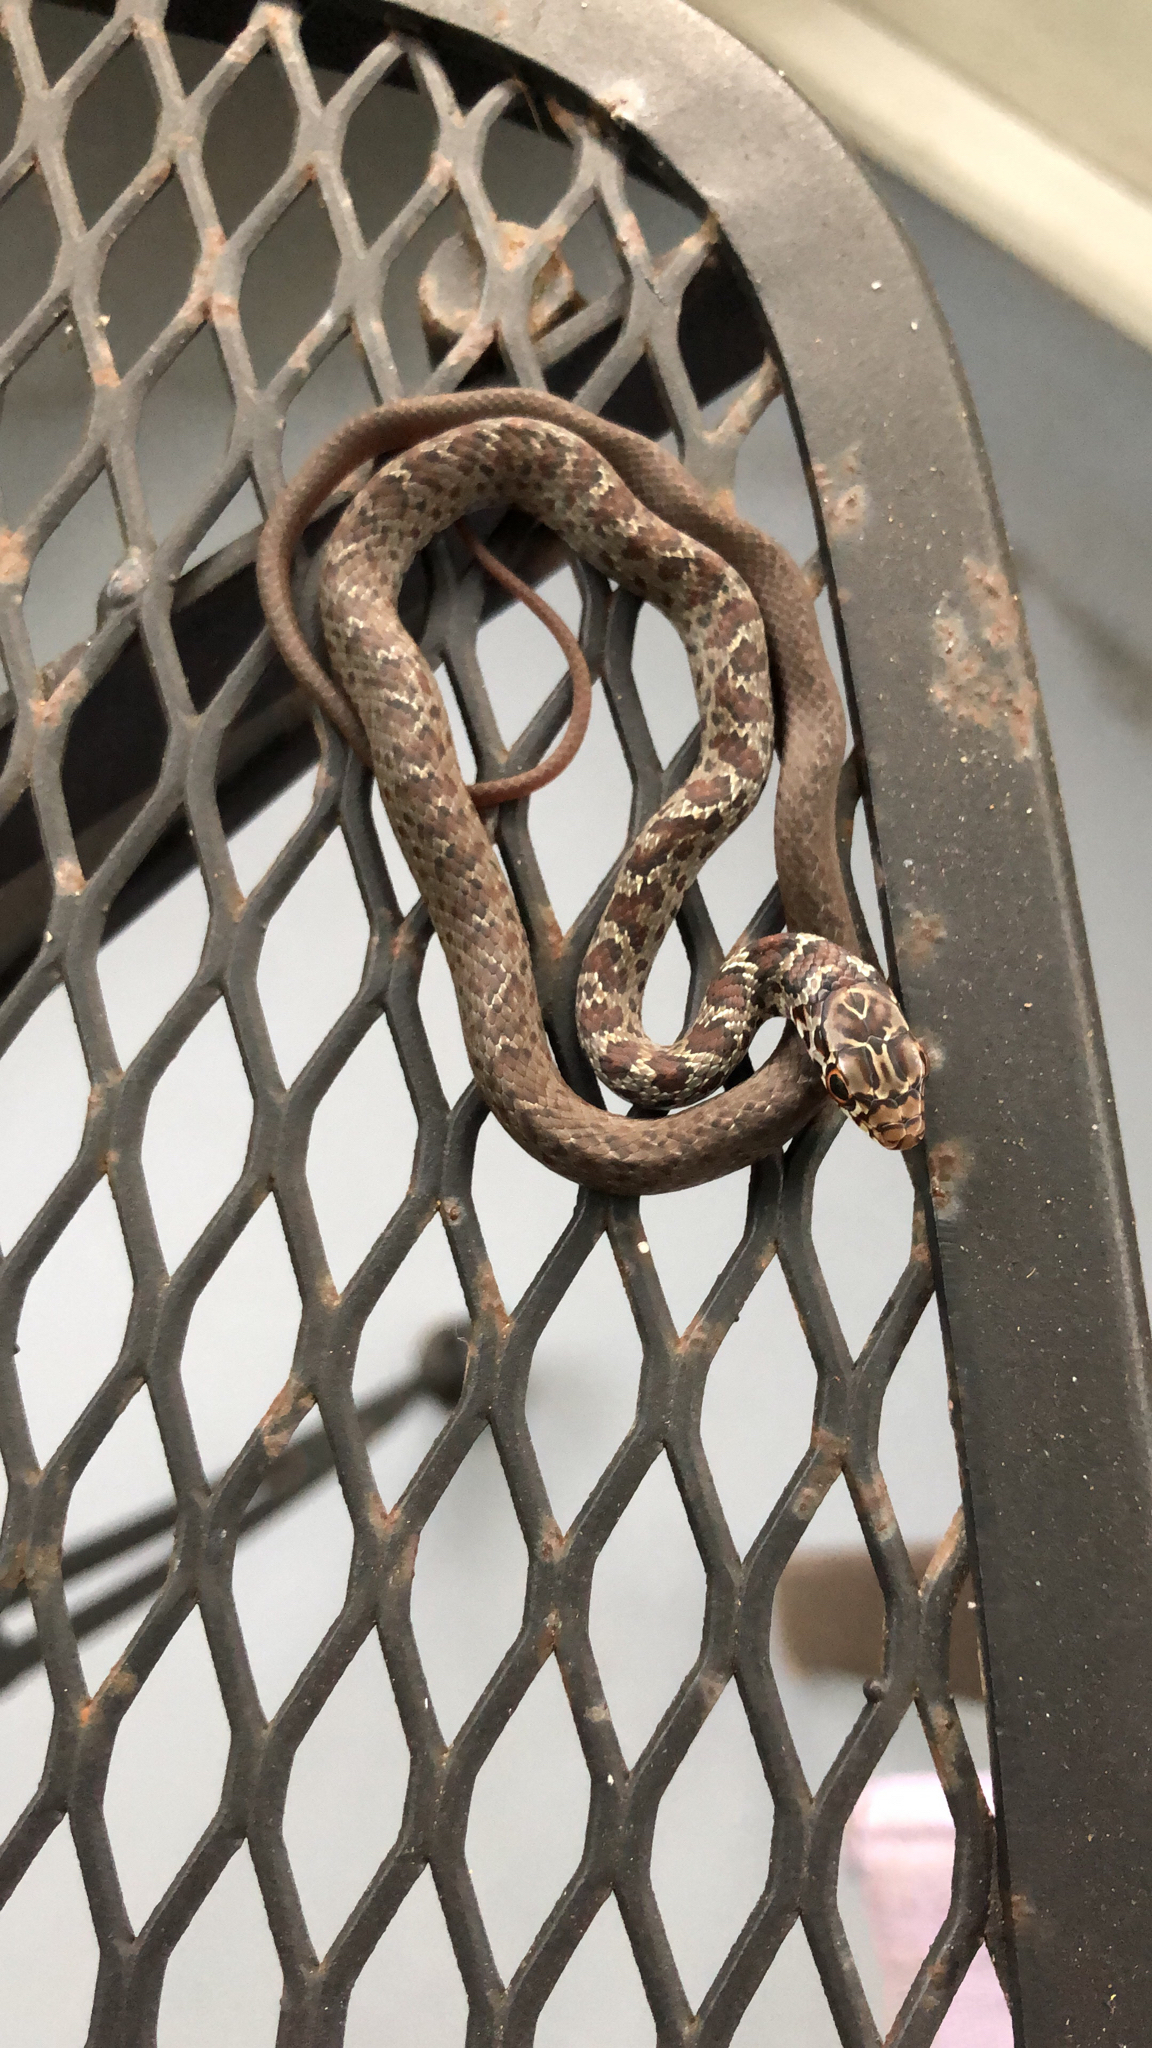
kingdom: Animalia
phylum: Chordata
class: Squamata
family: Colubridae
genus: Coluber
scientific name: Coluber constrictor
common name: Eastern racer
